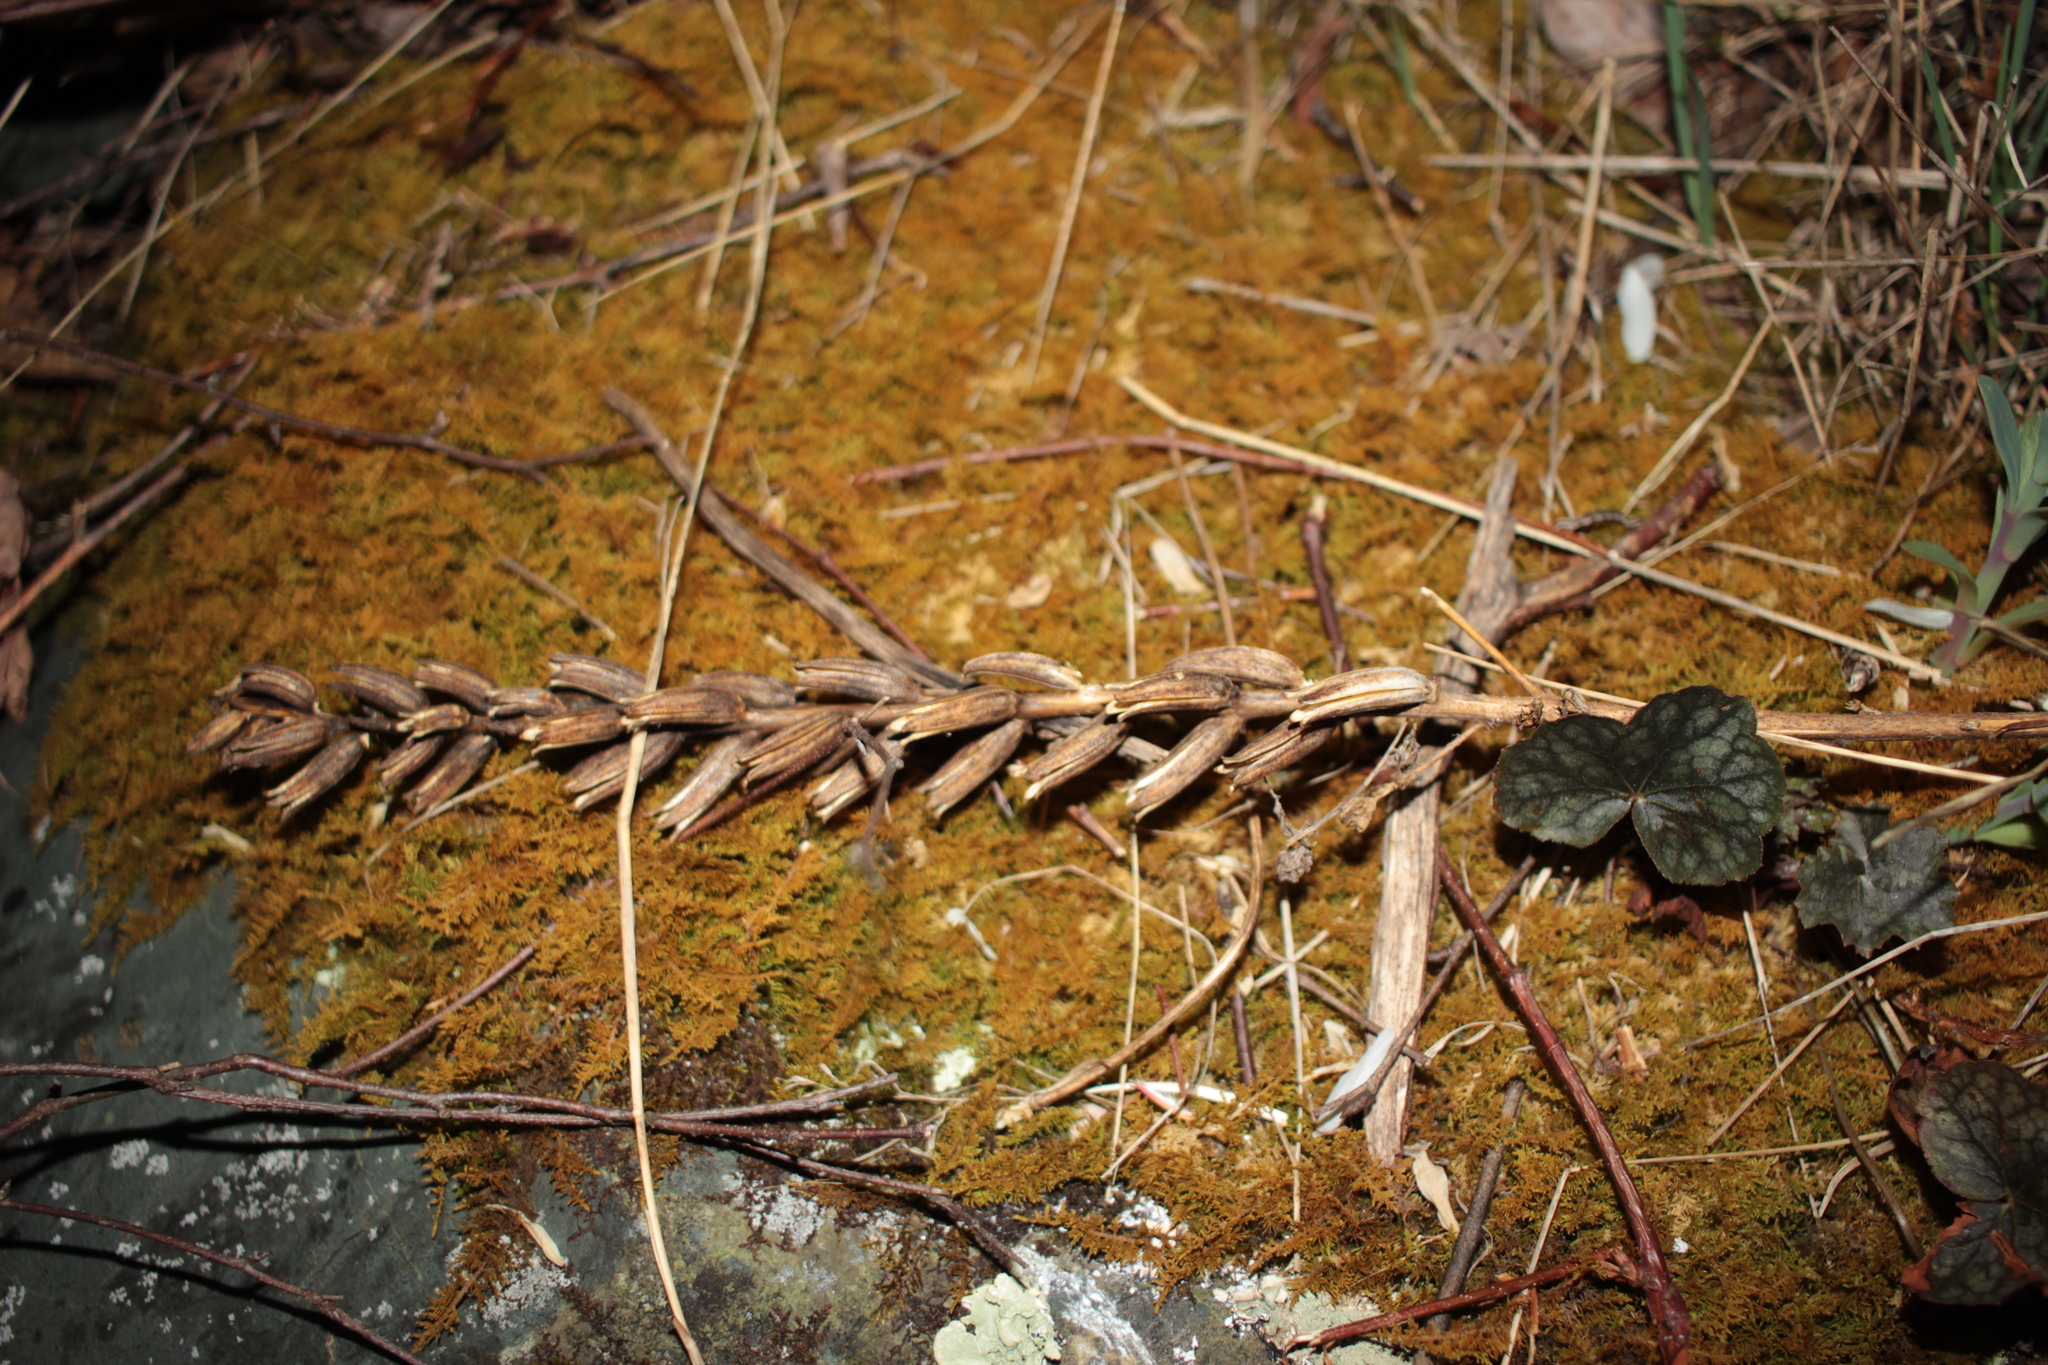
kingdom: Plantae
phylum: Tracheophyta
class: Magnoliopsida
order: Myrtales
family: Onagraceae
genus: Oenothera
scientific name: Oenothera
